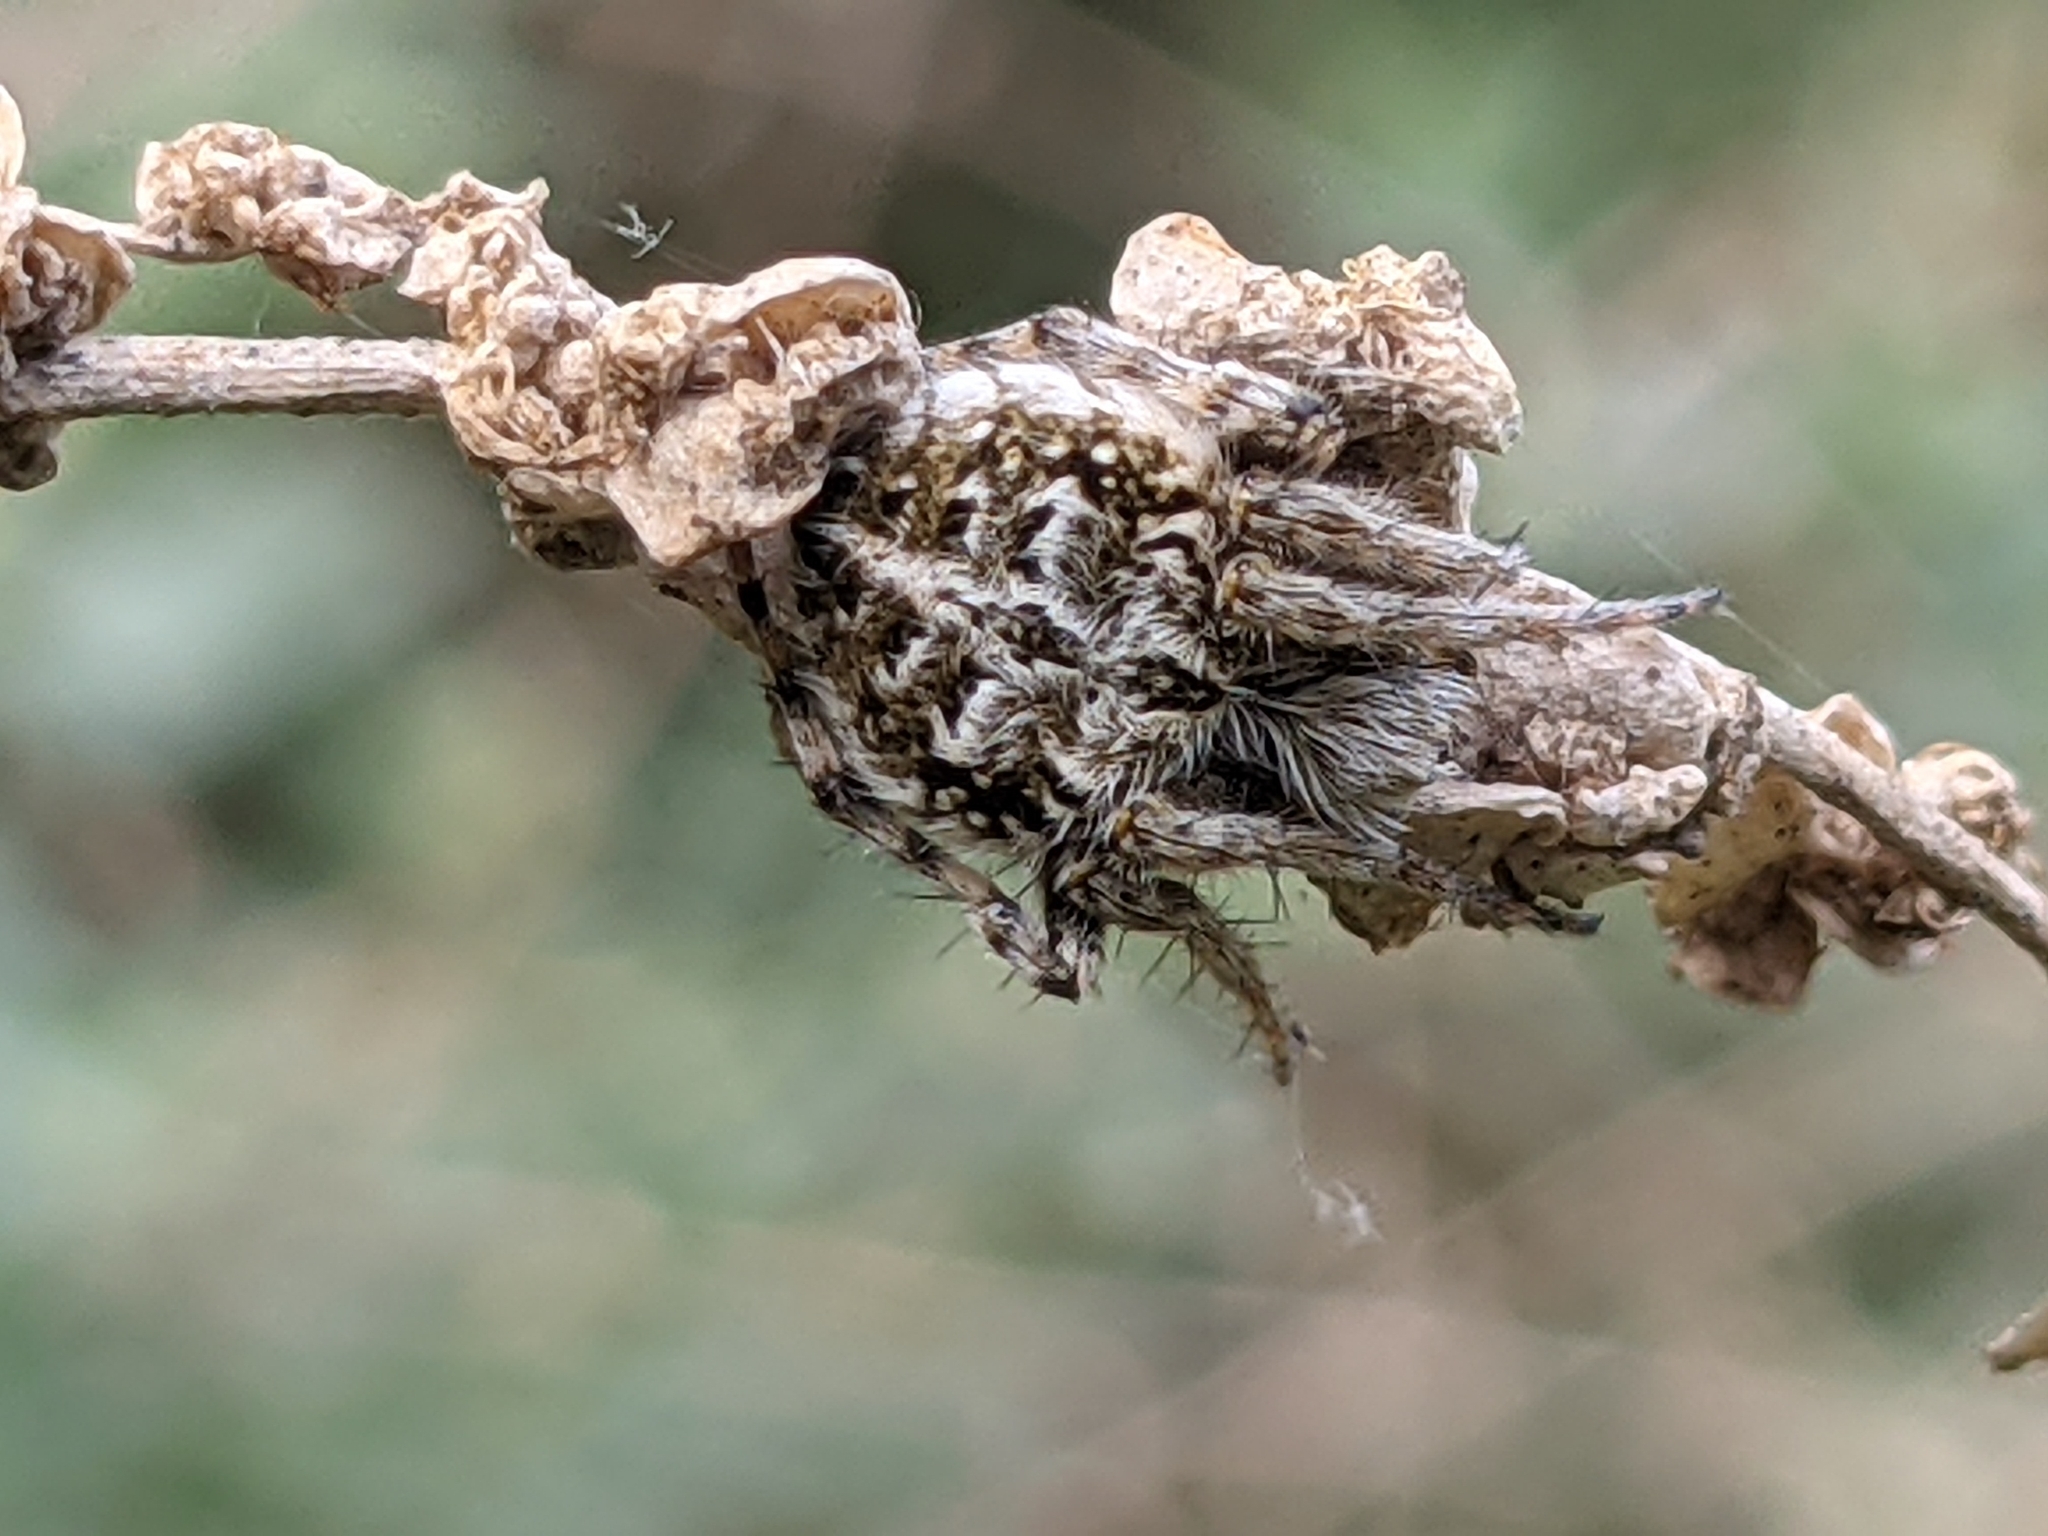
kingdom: Animalia
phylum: Arthropoda
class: Arachnida
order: Araneae
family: Araneidae
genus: Agalenatea
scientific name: Agalenatea redii
